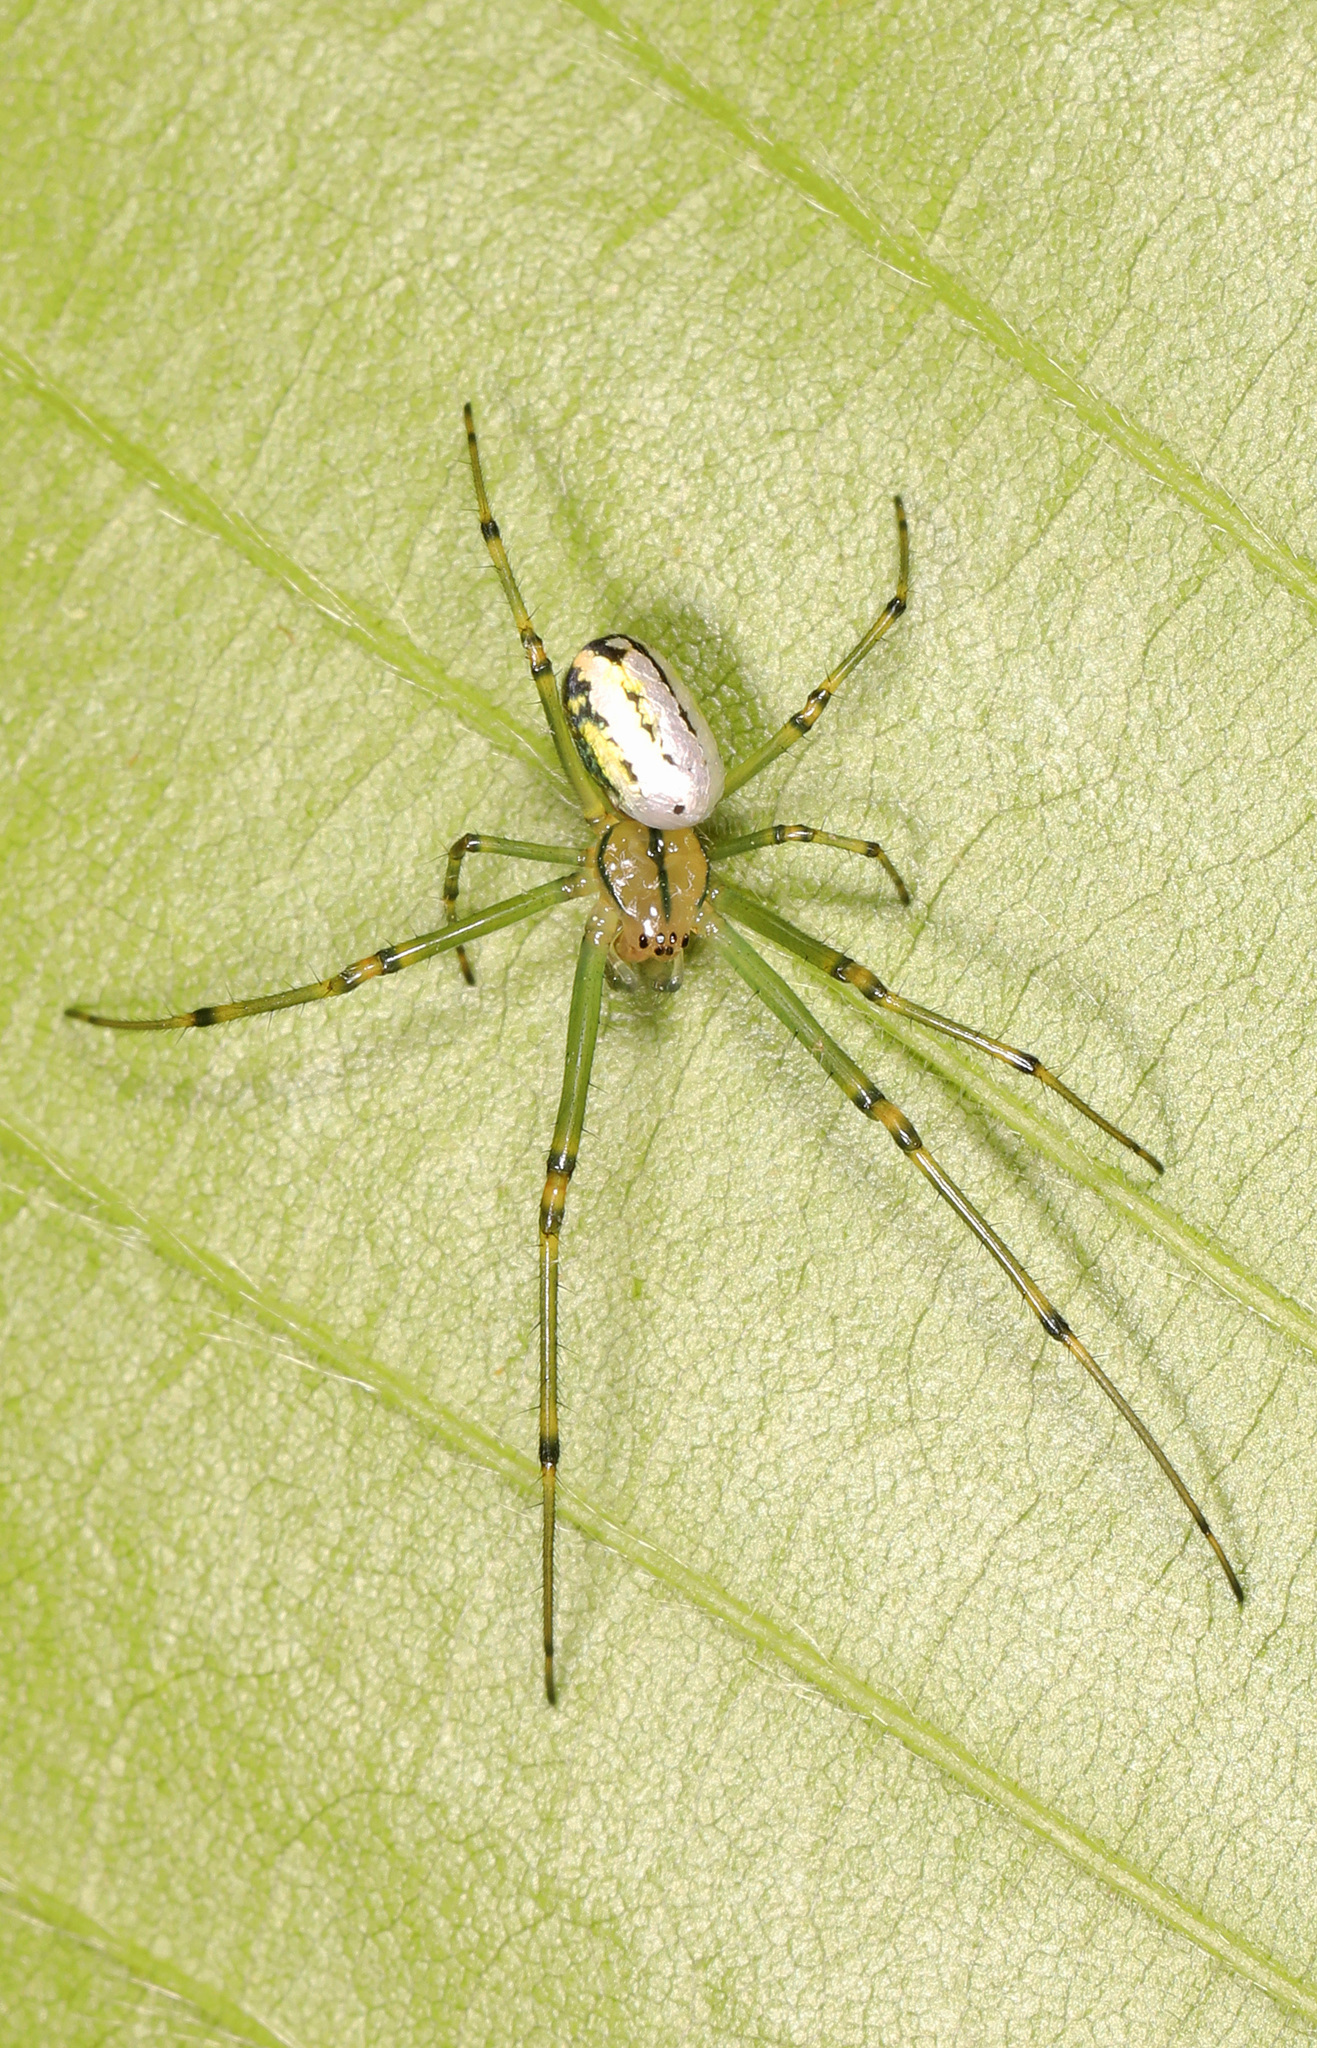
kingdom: Animalia
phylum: Arthropoda
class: Arachnida
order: Araneae
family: Tetragnathidae
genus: Leucauge
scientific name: Leucauge venusta
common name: Longjawed orb weavers
